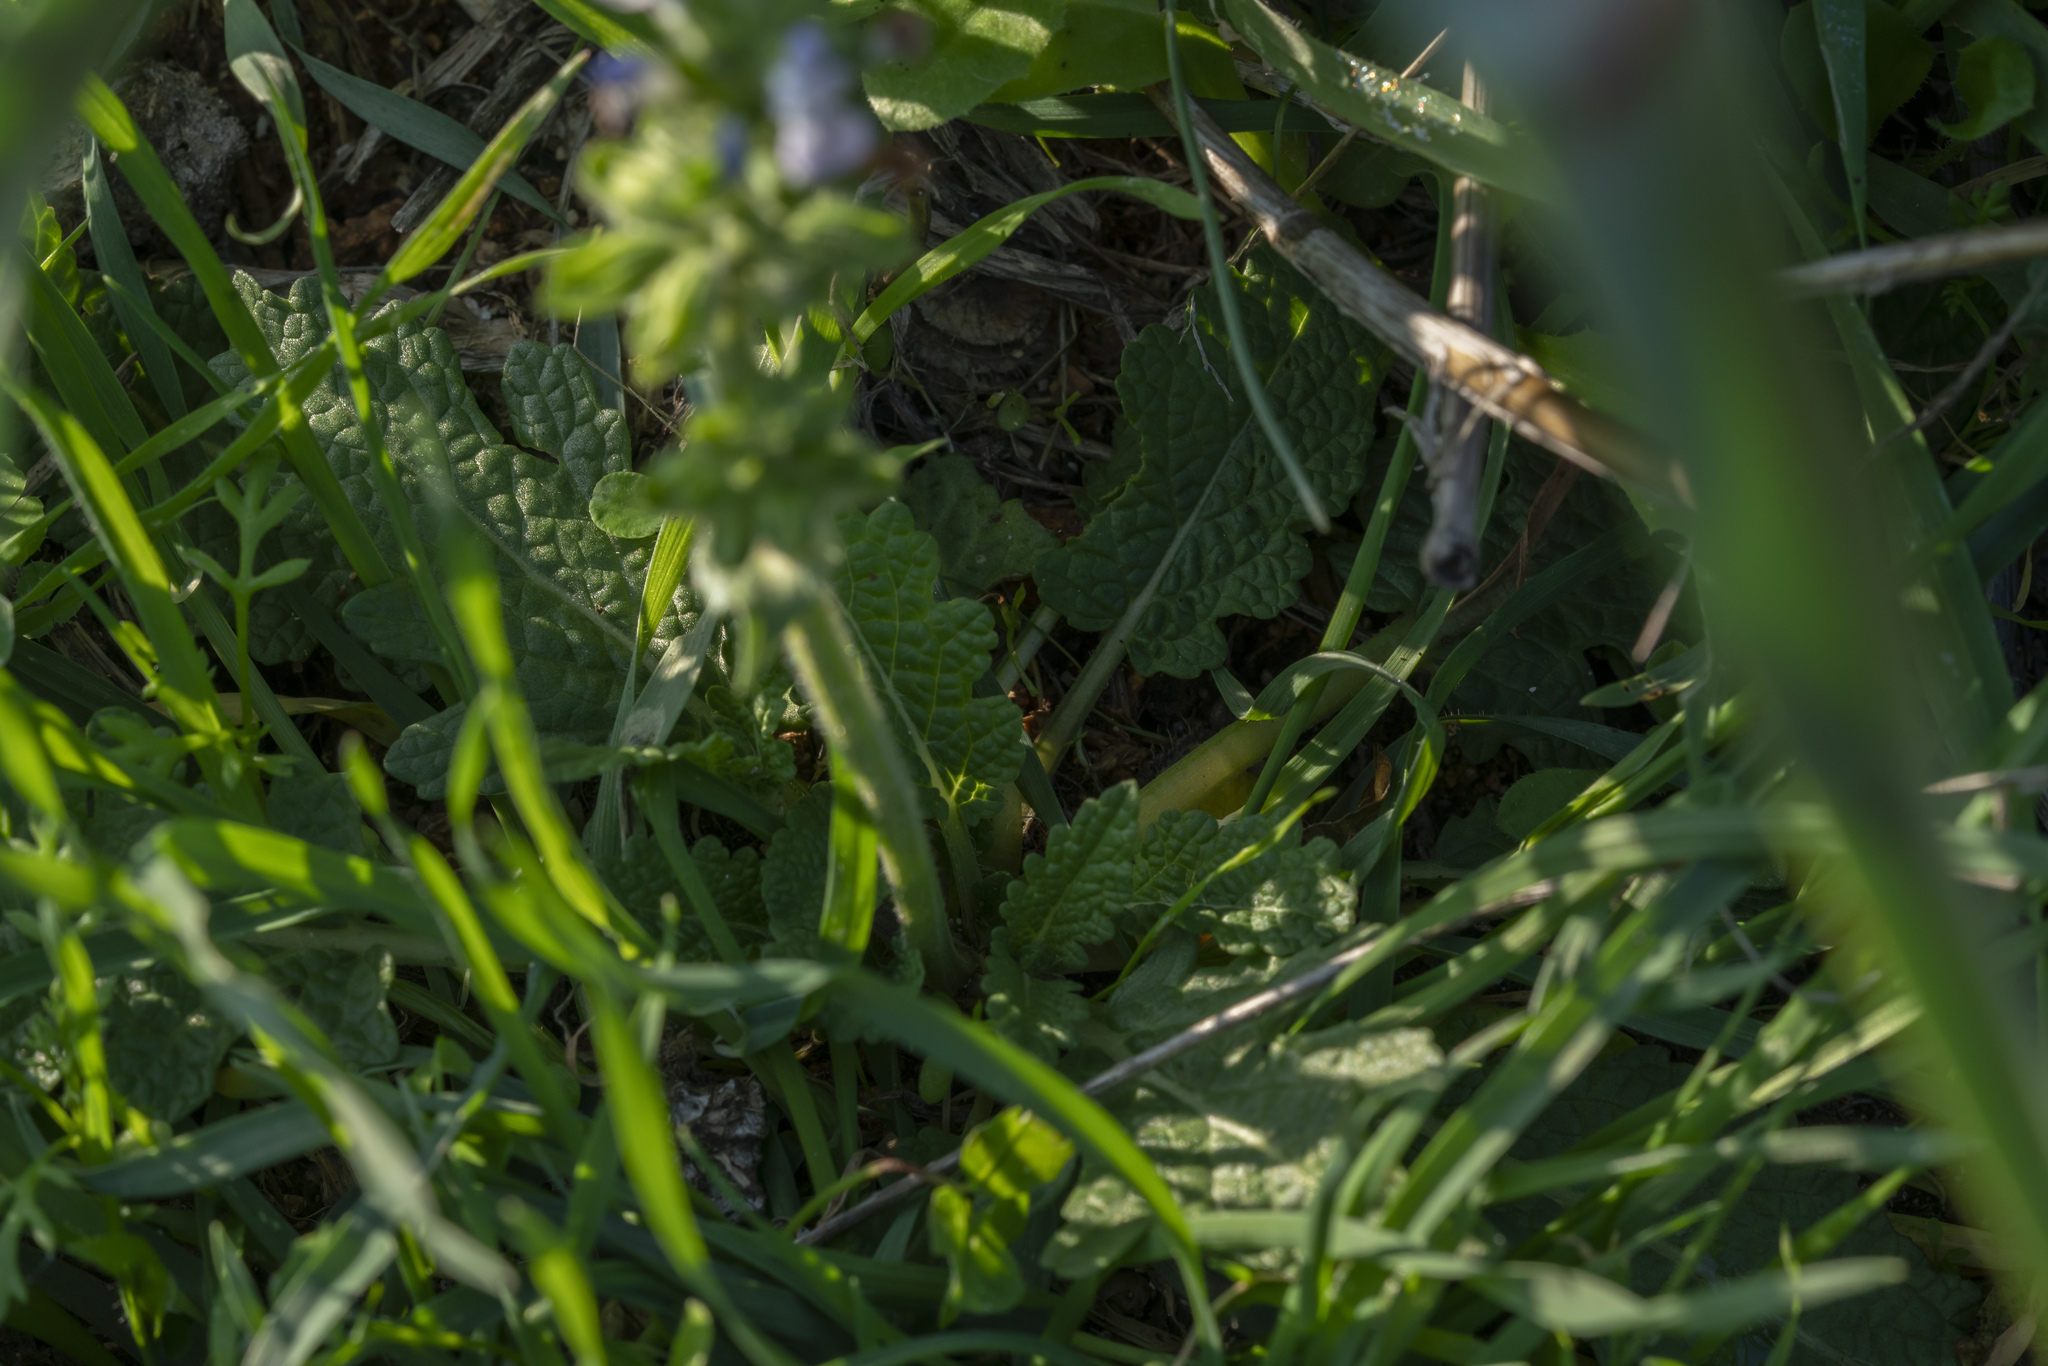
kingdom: Plantae
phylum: Tracheophyta
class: Magnoliopsida
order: Lamiales
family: Lamiaceae
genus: Salvia
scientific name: Salvia clandestina
